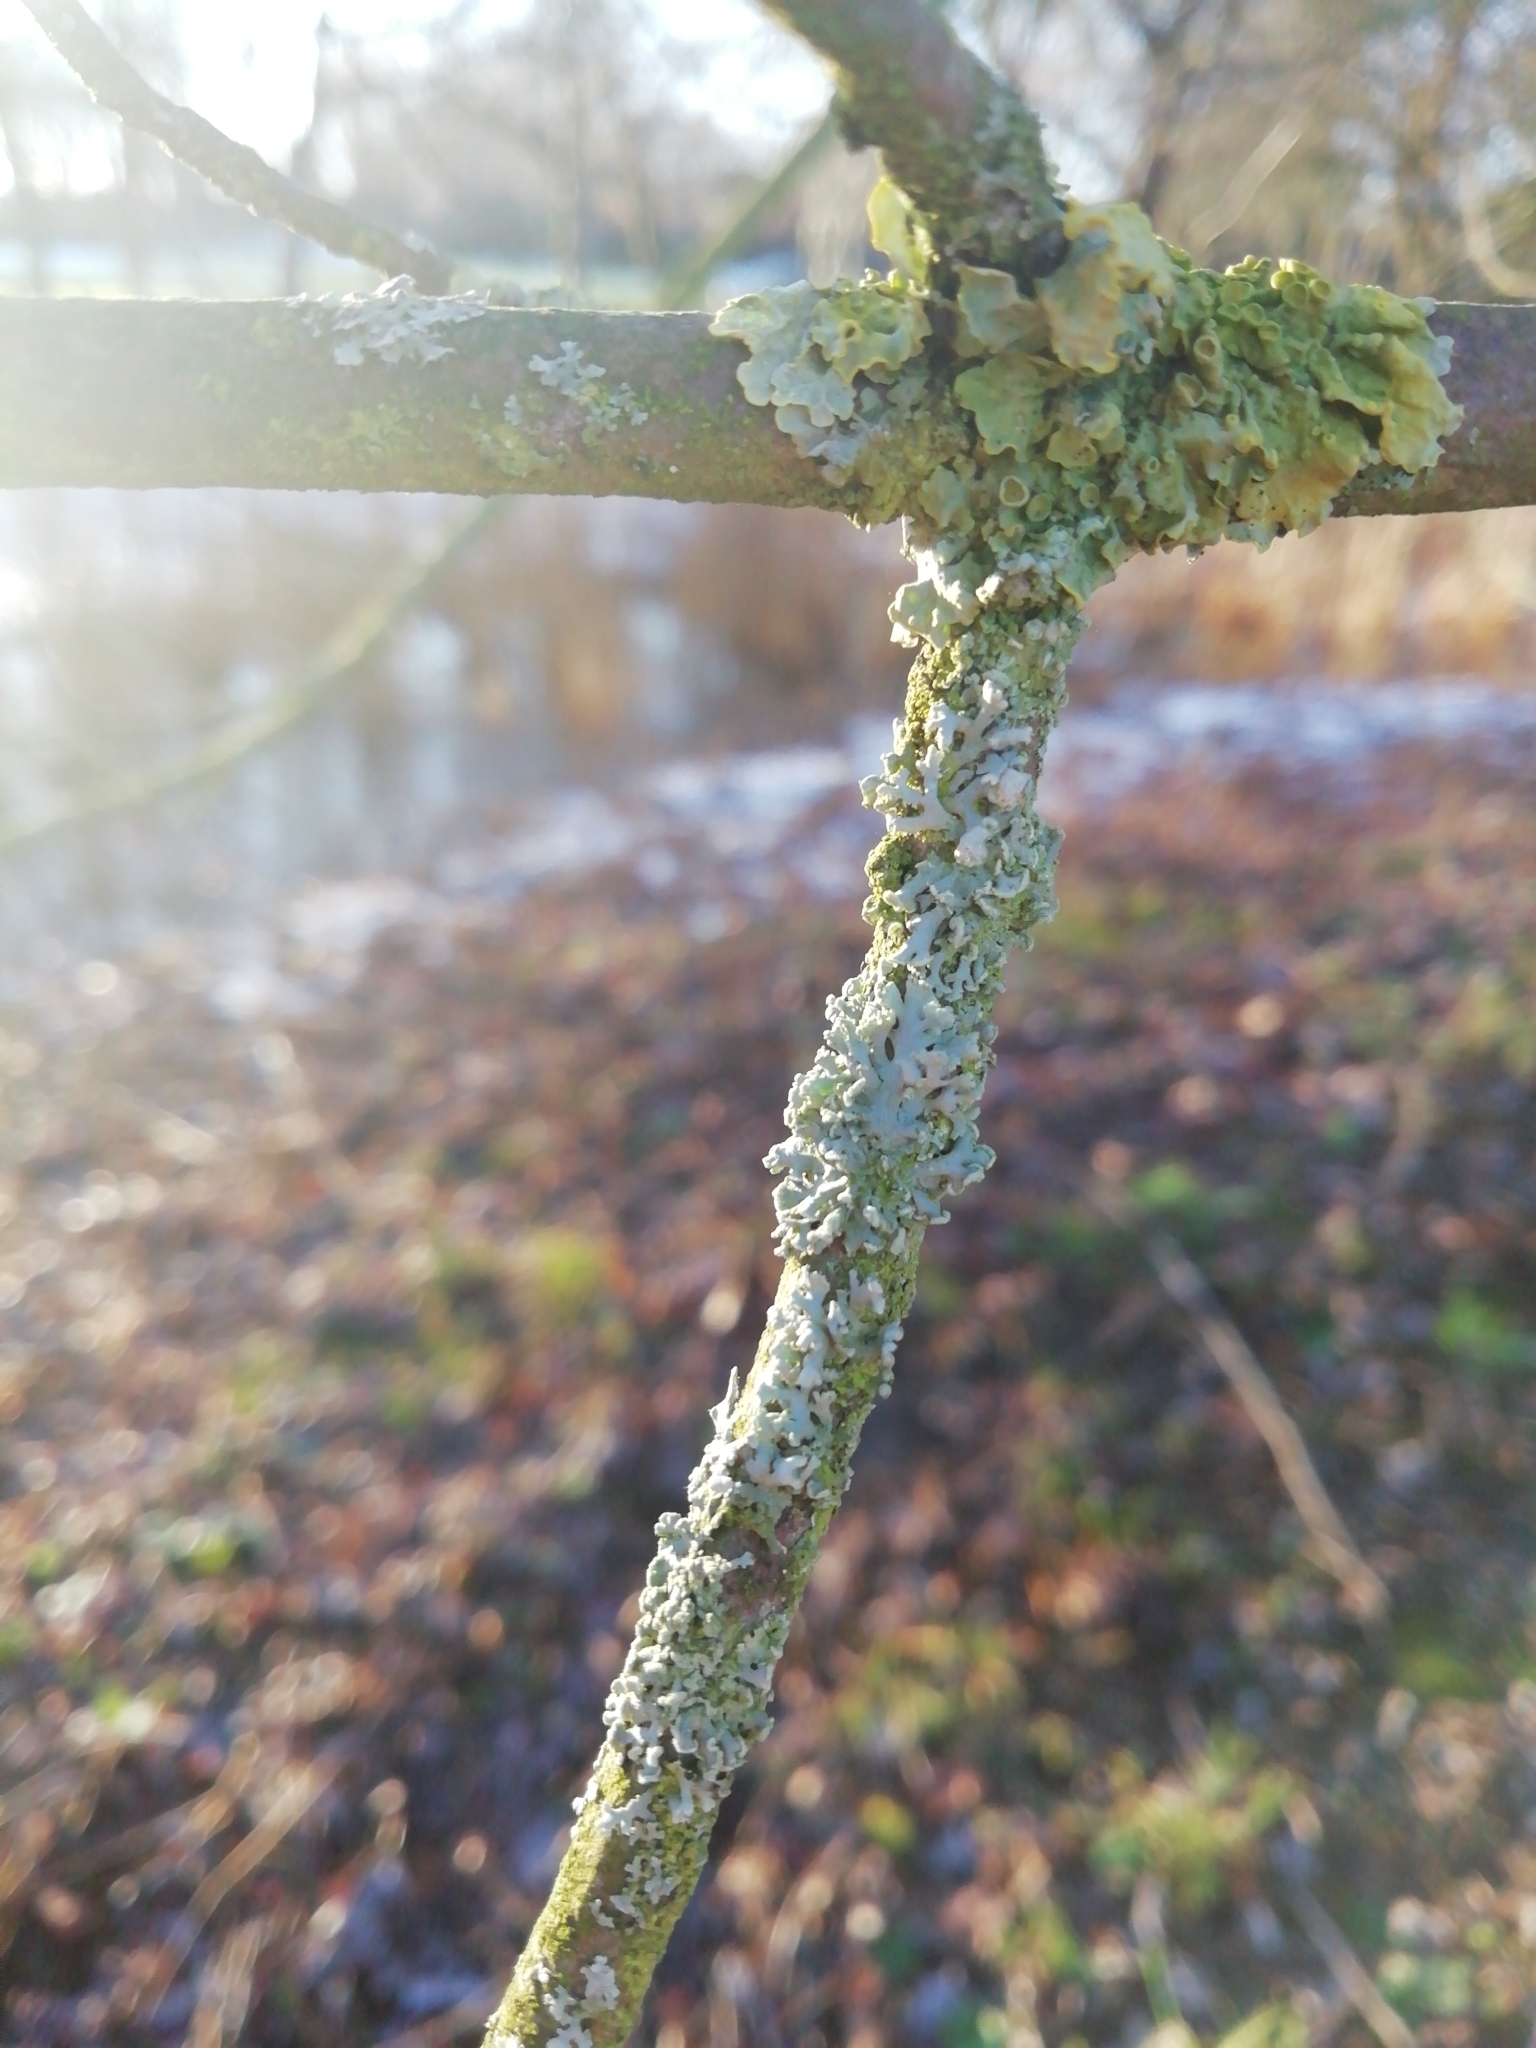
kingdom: Fungi
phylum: Ascomycota
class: Lecanoromycetes
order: Caliciales
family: Physciaceae
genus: Physcia
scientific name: Physcia tenella
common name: Fringed rosette lichen
